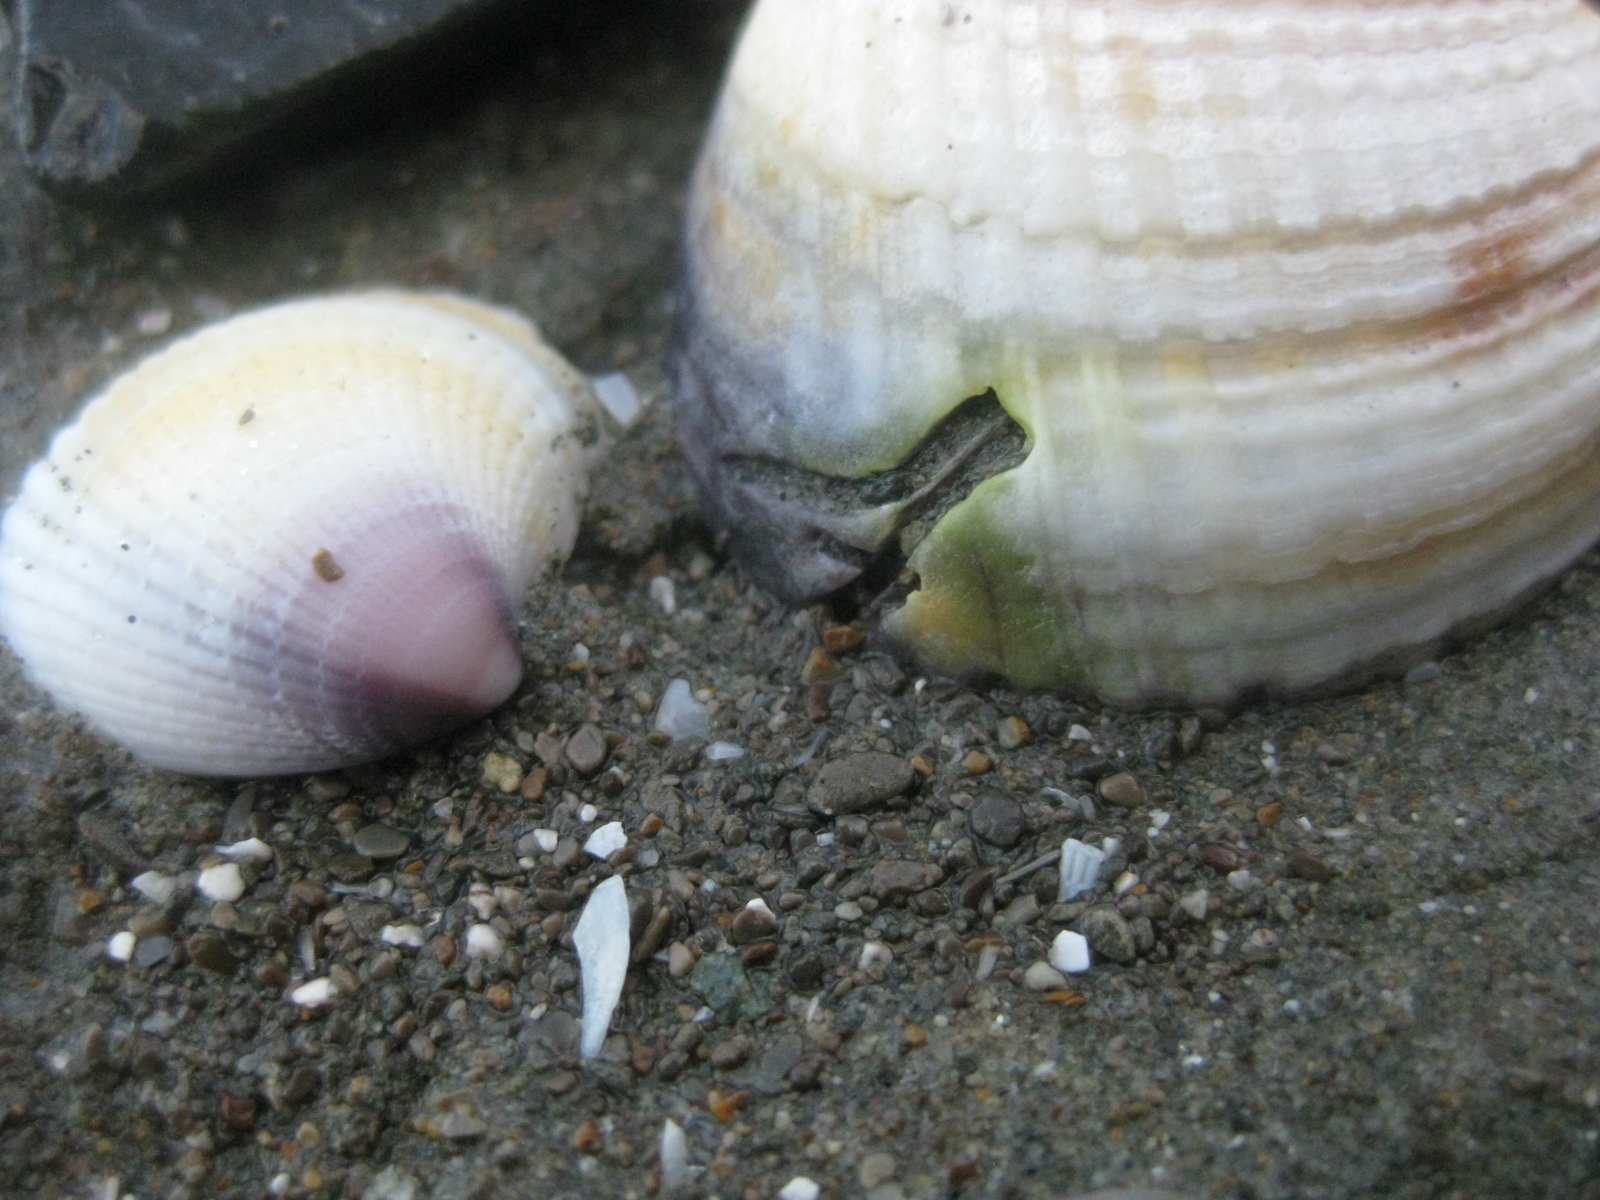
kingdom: Animalia
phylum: Annelida
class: Polychaeta
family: Spionidae
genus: Boccardia
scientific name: Boccardia acus
